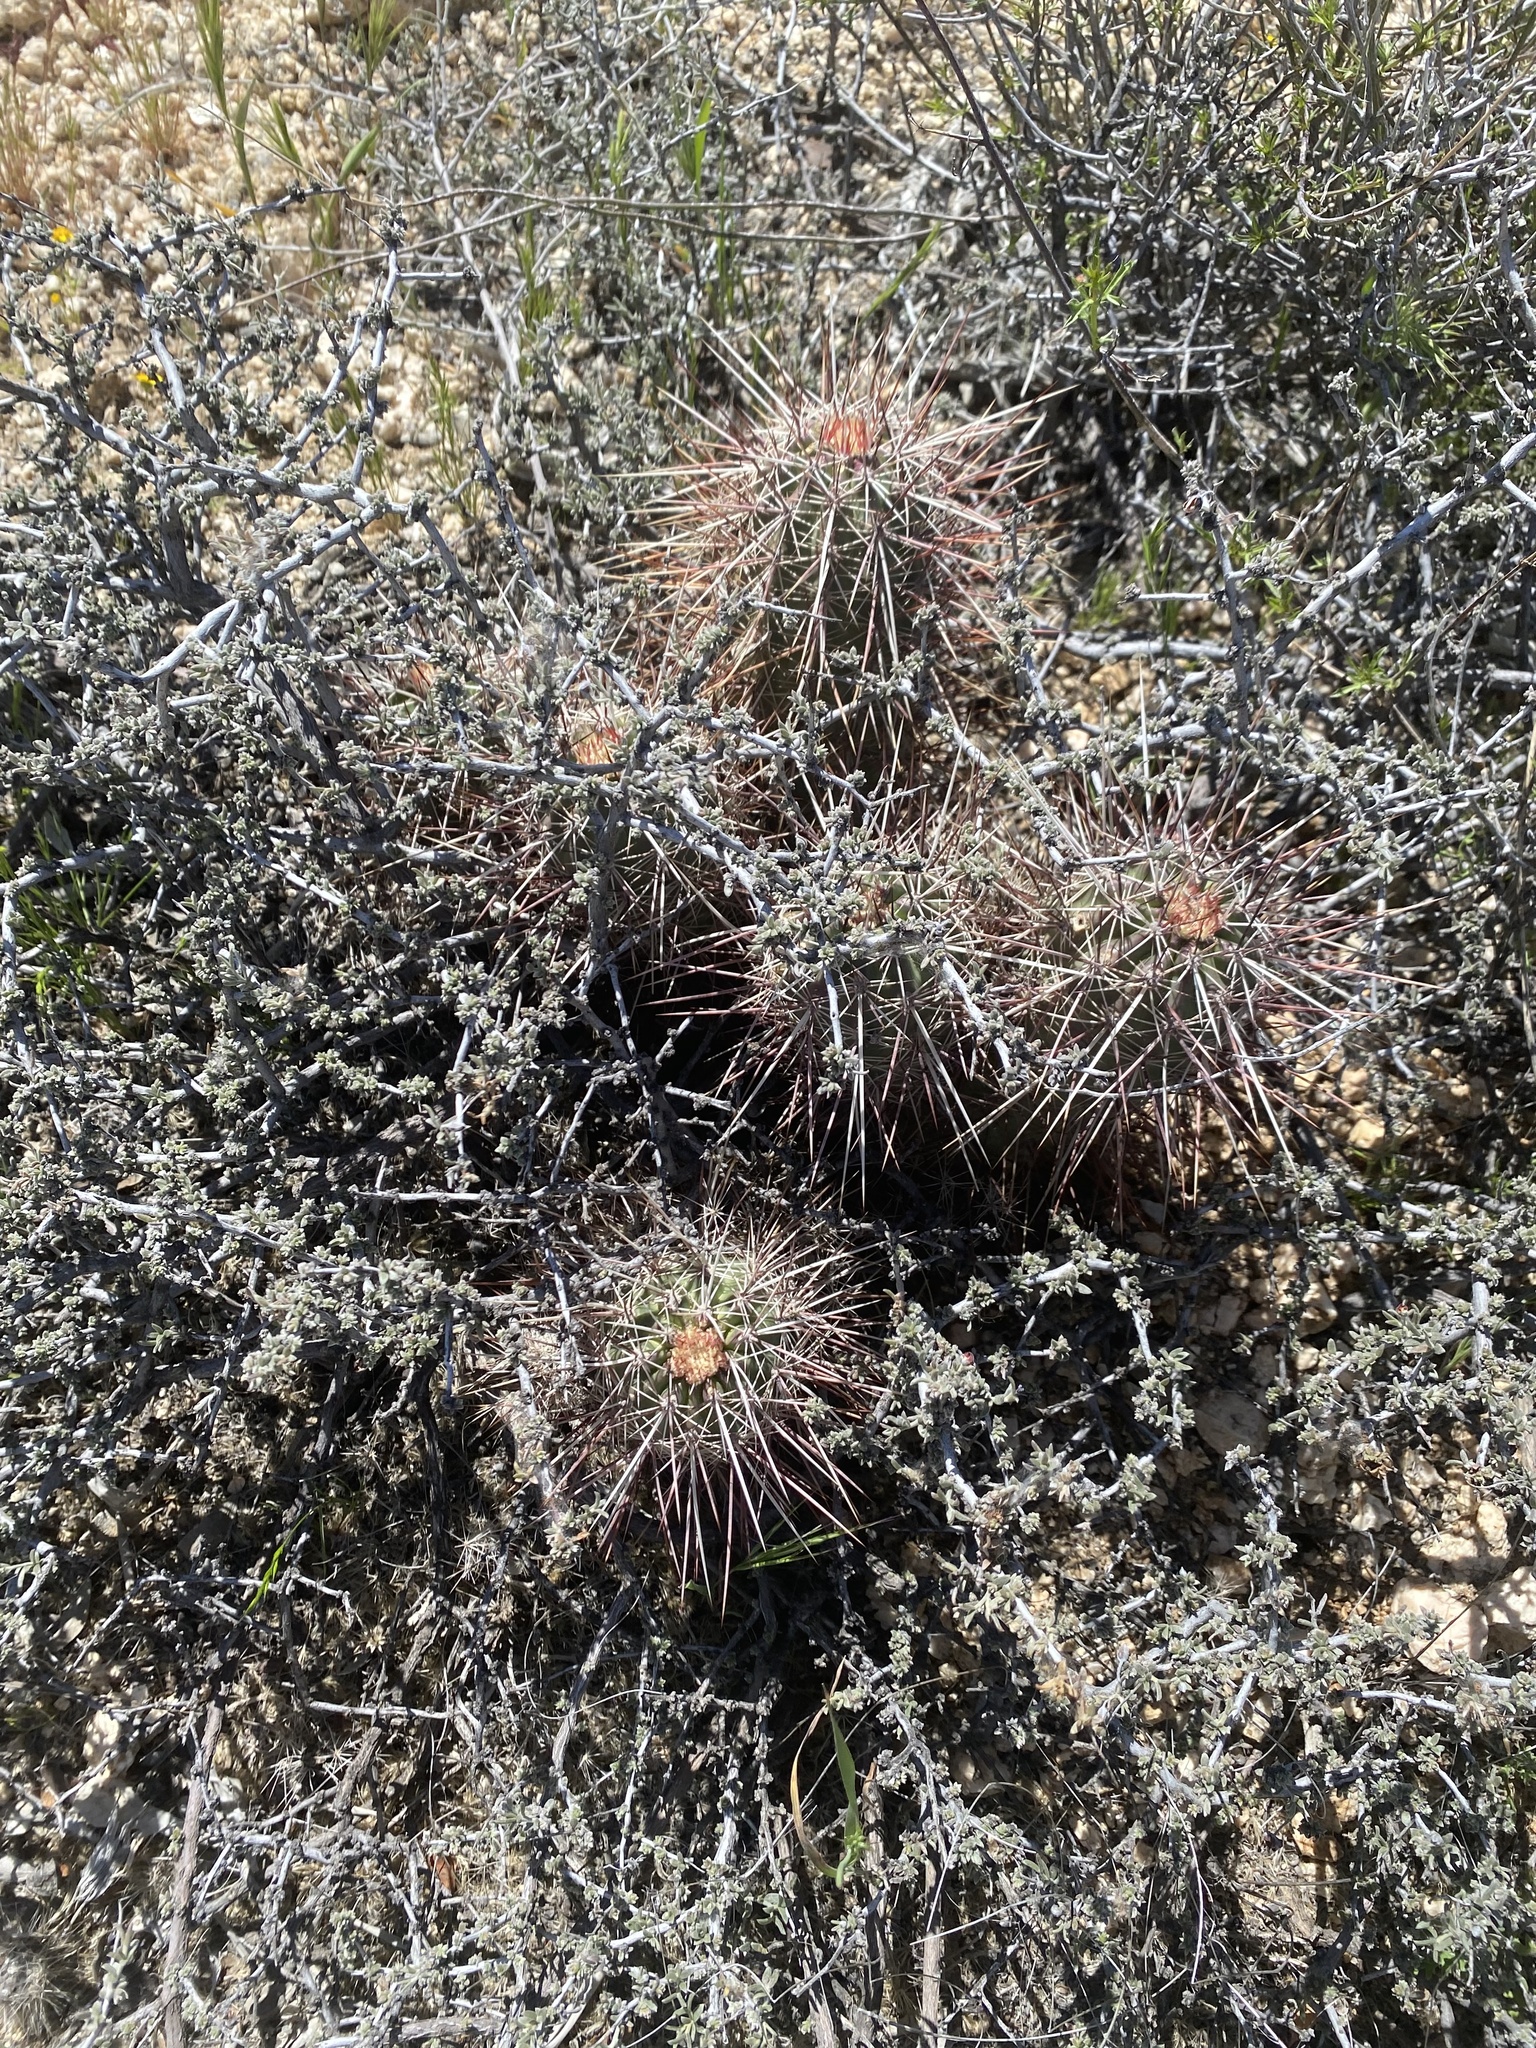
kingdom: Plantae
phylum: Tracheophyta
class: Magnoliopsida
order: Caryophyllales
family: Cactaceae
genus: Echinocereus
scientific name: Echinocereus engelmannii
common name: Engelmann's hedgehog cactus
